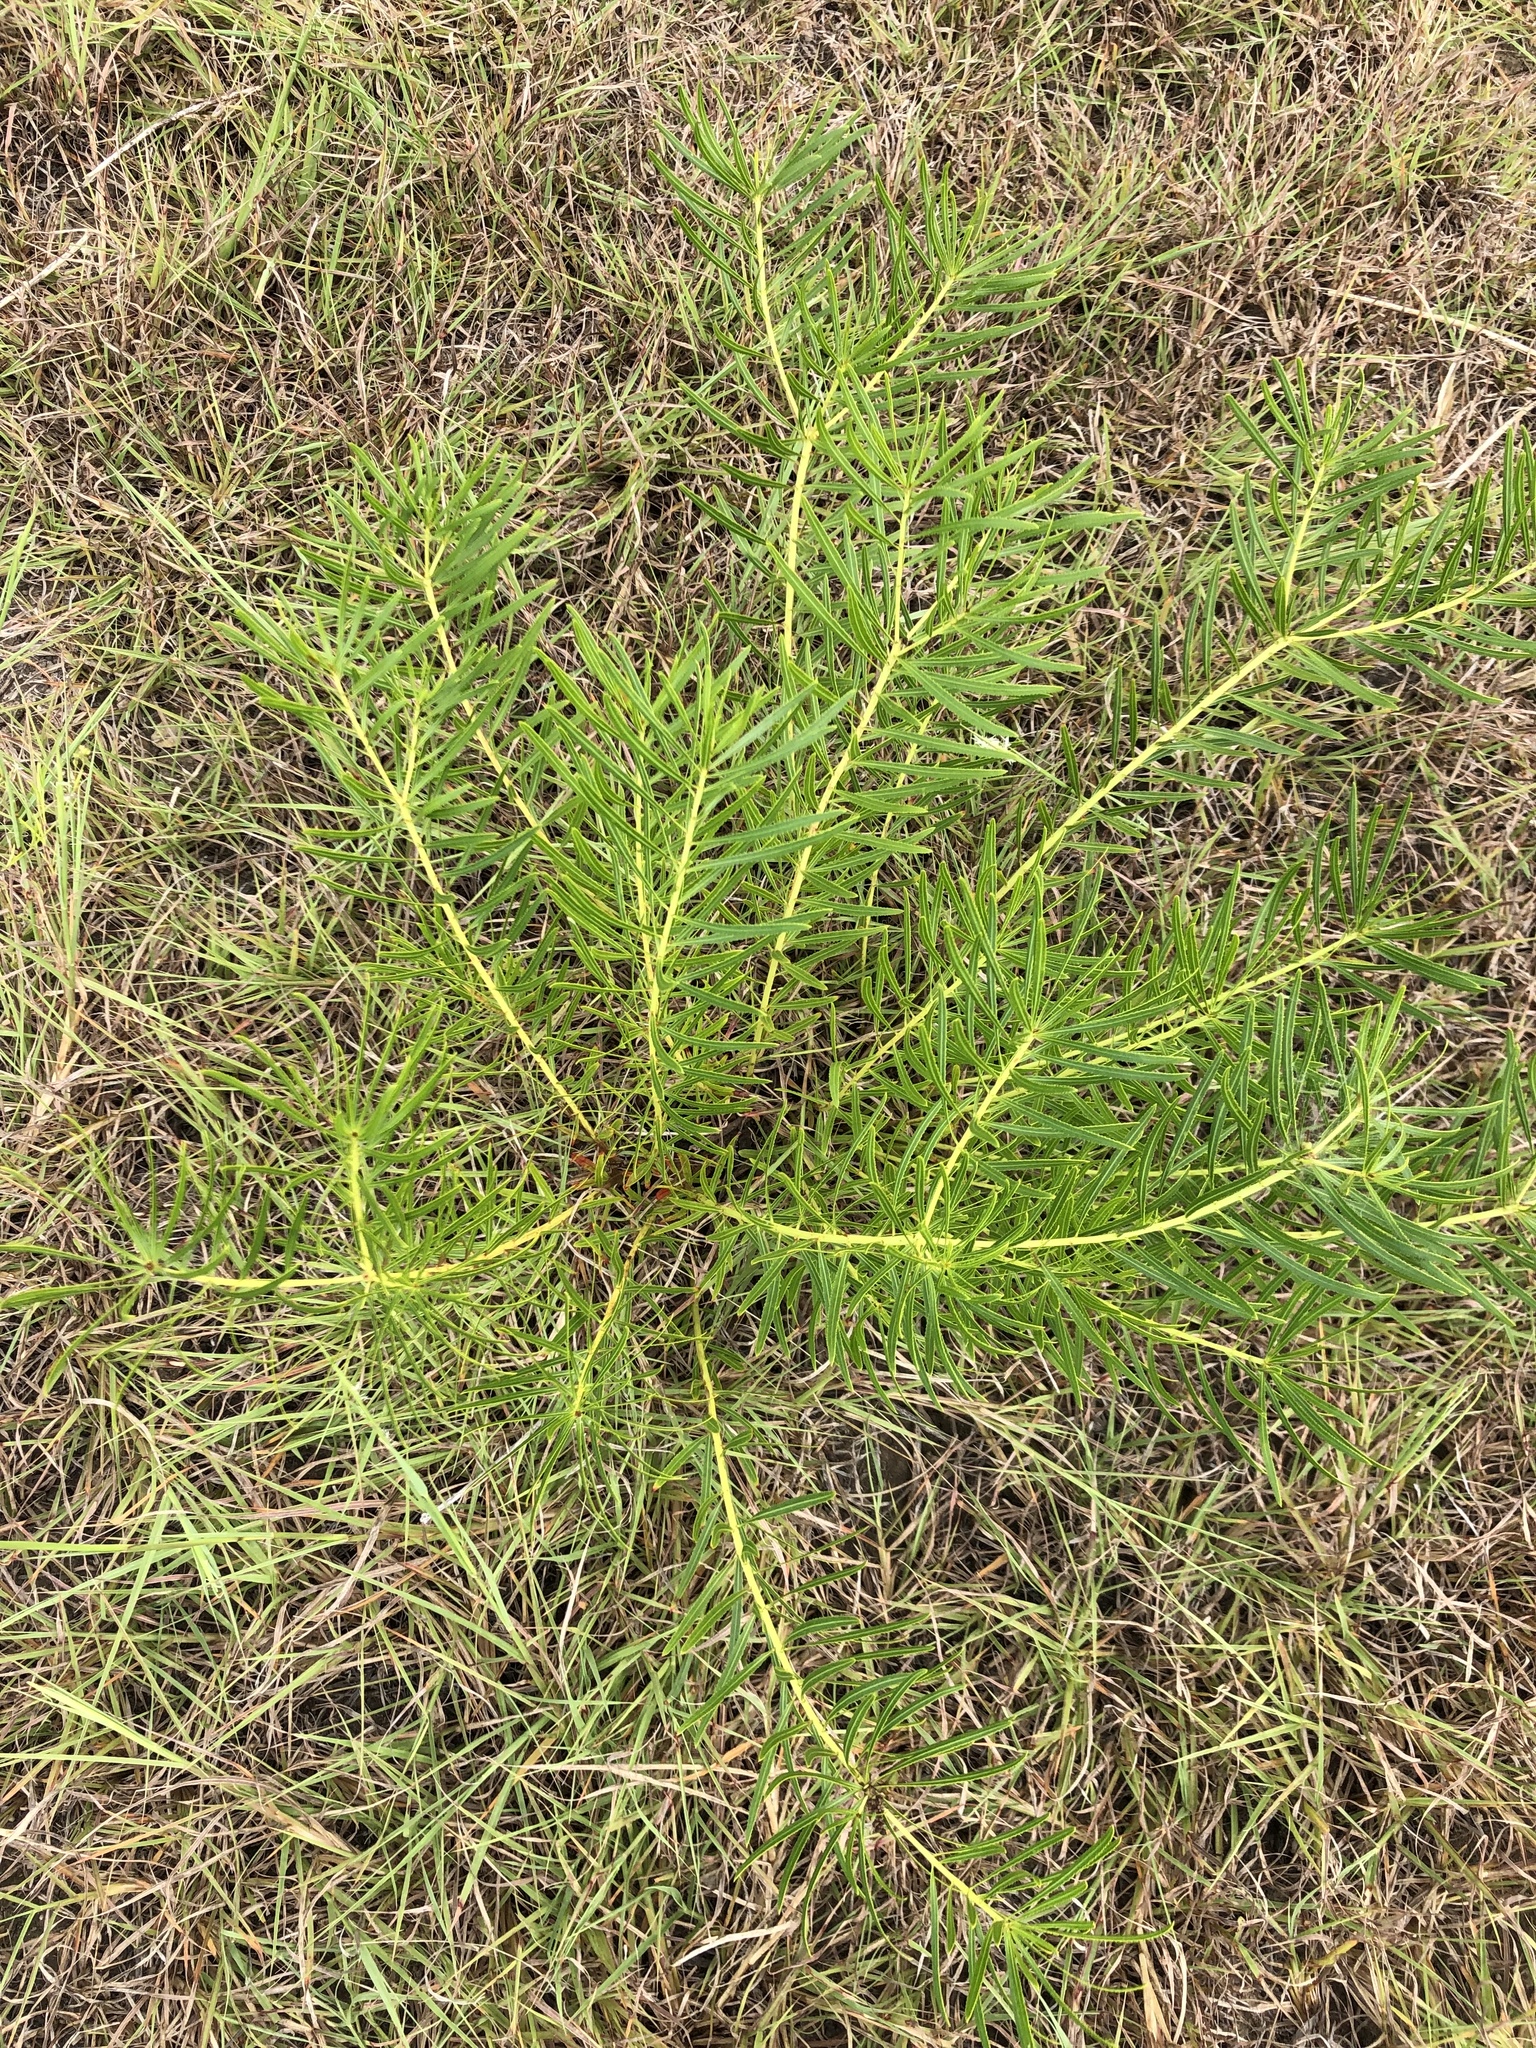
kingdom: Plantae
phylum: Tracheophyta
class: Magnoliopsida
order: Malpighiales
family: Euphorbiaceae
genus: Stillingia
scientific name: Stillingia texana
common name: Texas stillingia
